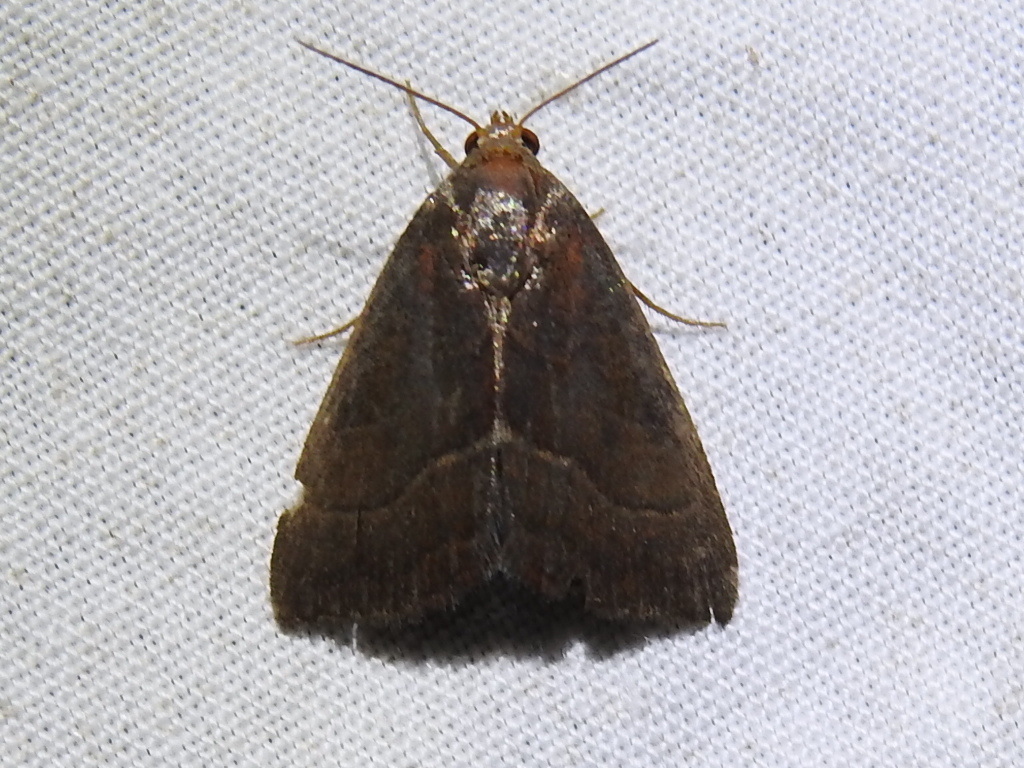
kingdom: Animalia
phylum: Arthropoda
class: Insecta
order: Lepidoptera
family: Noctuidae
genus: Galgula
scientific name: Galgula partita
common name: Wedgeling
